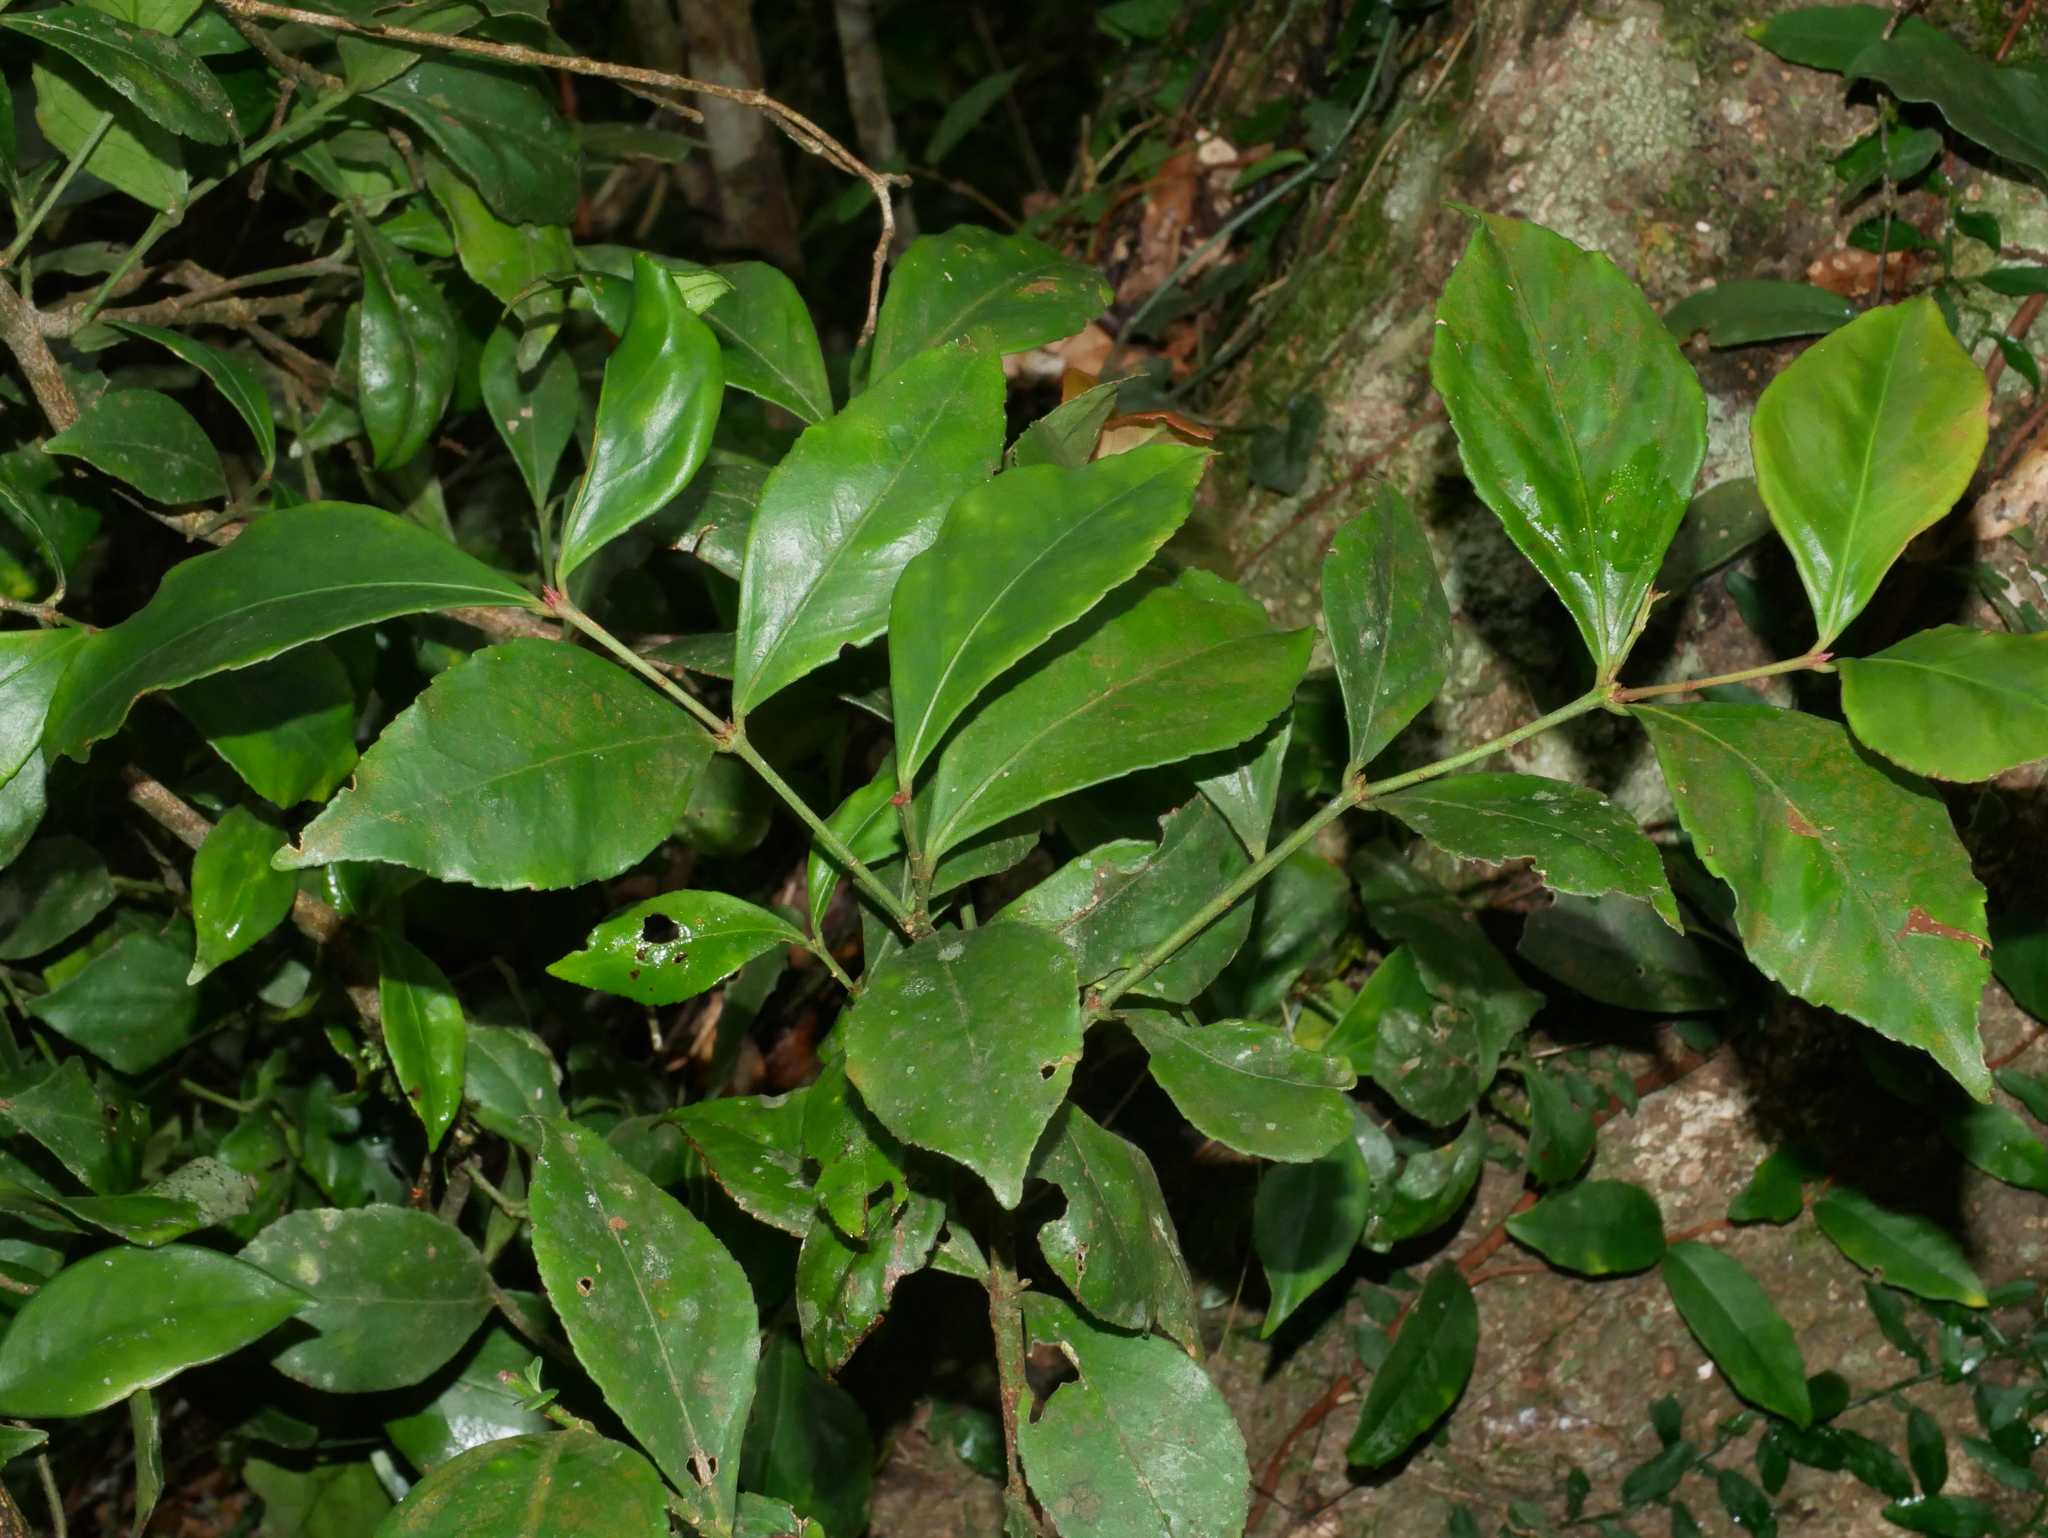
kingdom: Plantae
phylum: Tracheophyta
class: Magnoliopsida
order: Celastrales
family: Celastraceae
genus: Euonymus
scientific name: Euonymus tashiroi
